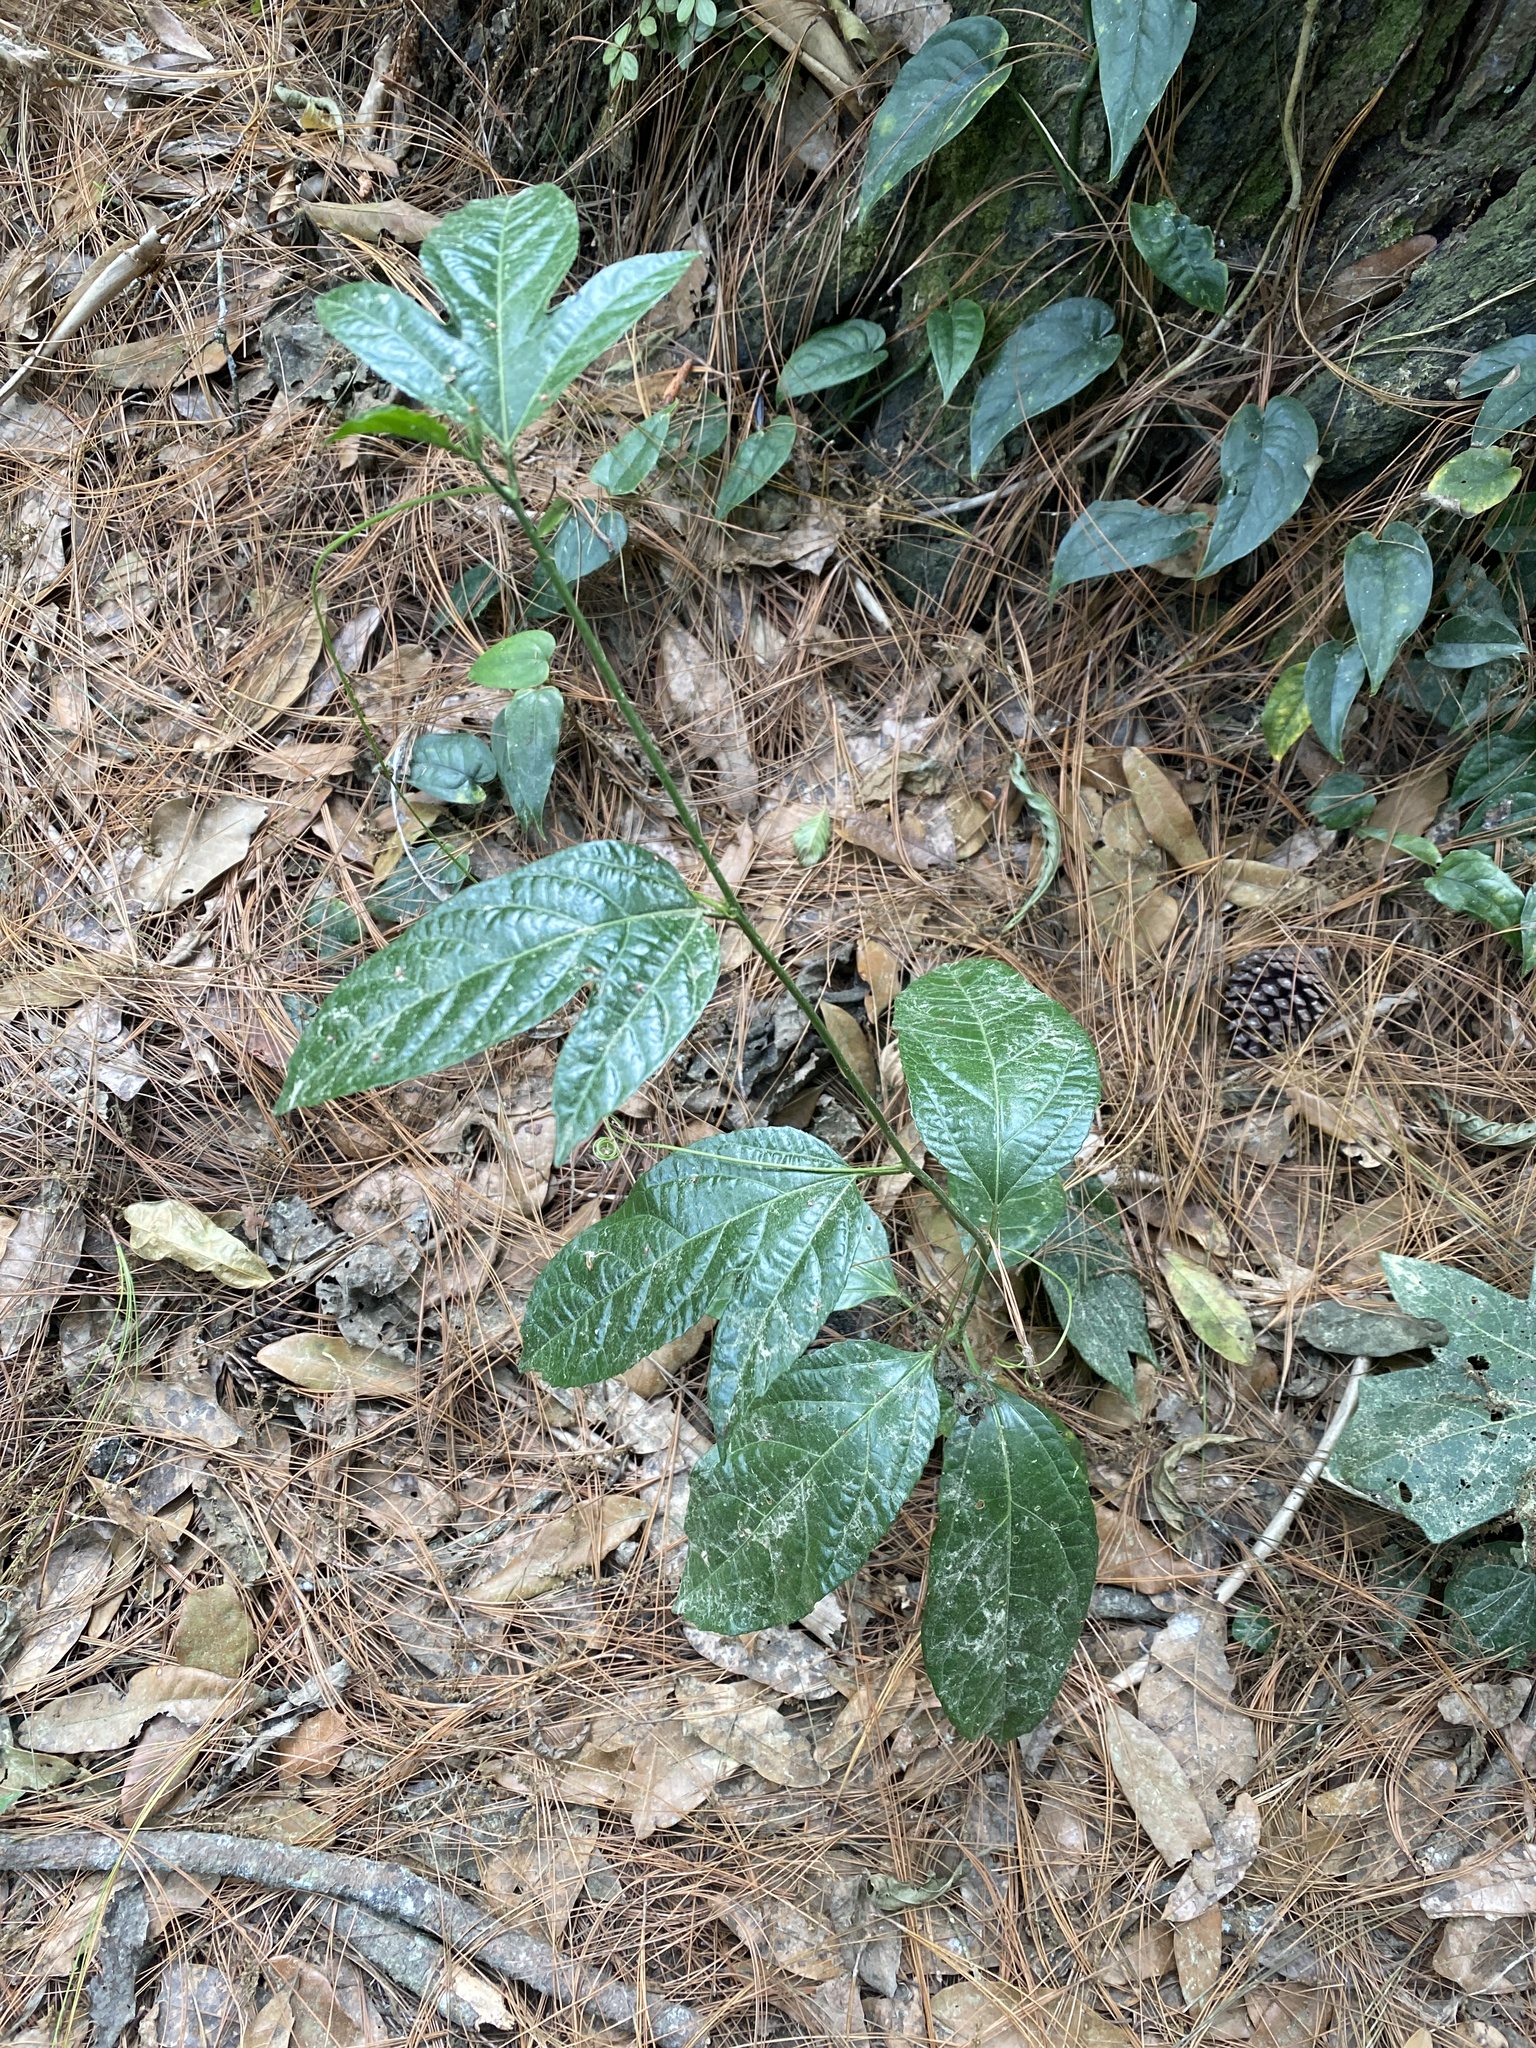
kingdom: Plantae
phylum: Tracheophyta
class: Magnoliopsida
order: Malpighiales
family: Passifloraceae
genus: Passiflora
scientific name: Passiflora edulis
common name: Purple granadilla
